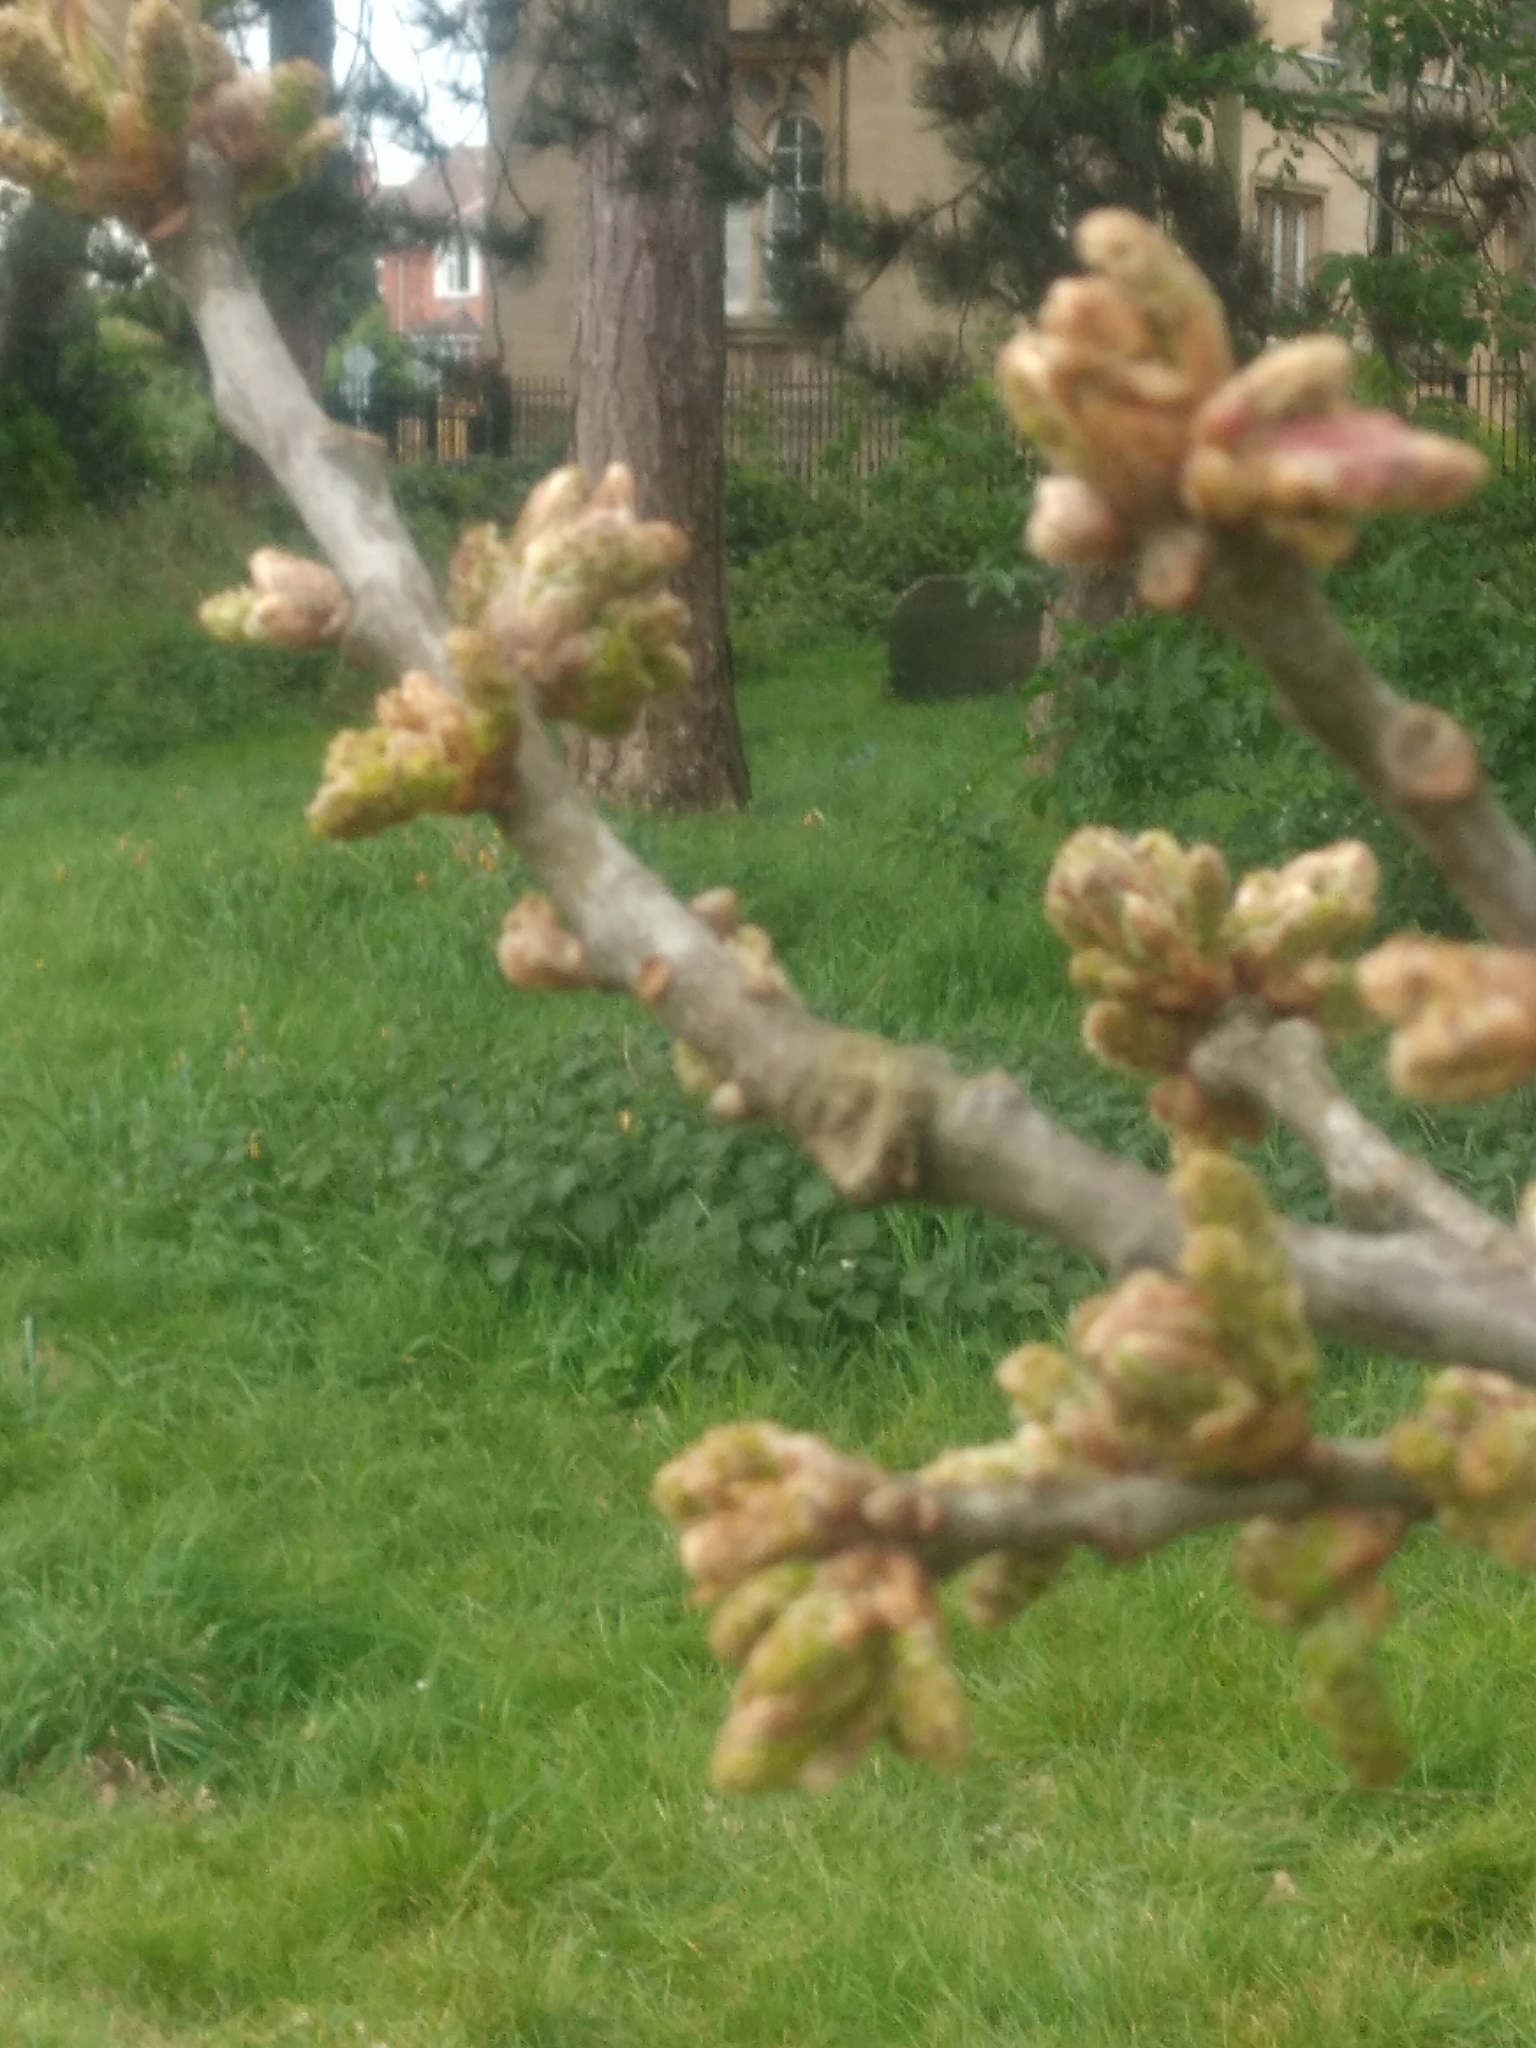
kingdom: Plantae
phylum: Tracheophyta
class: Magnoliopsida
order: Fagales
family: Fagaceae
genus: Quercus
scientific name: Quercus petraea
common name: Sessile oak
